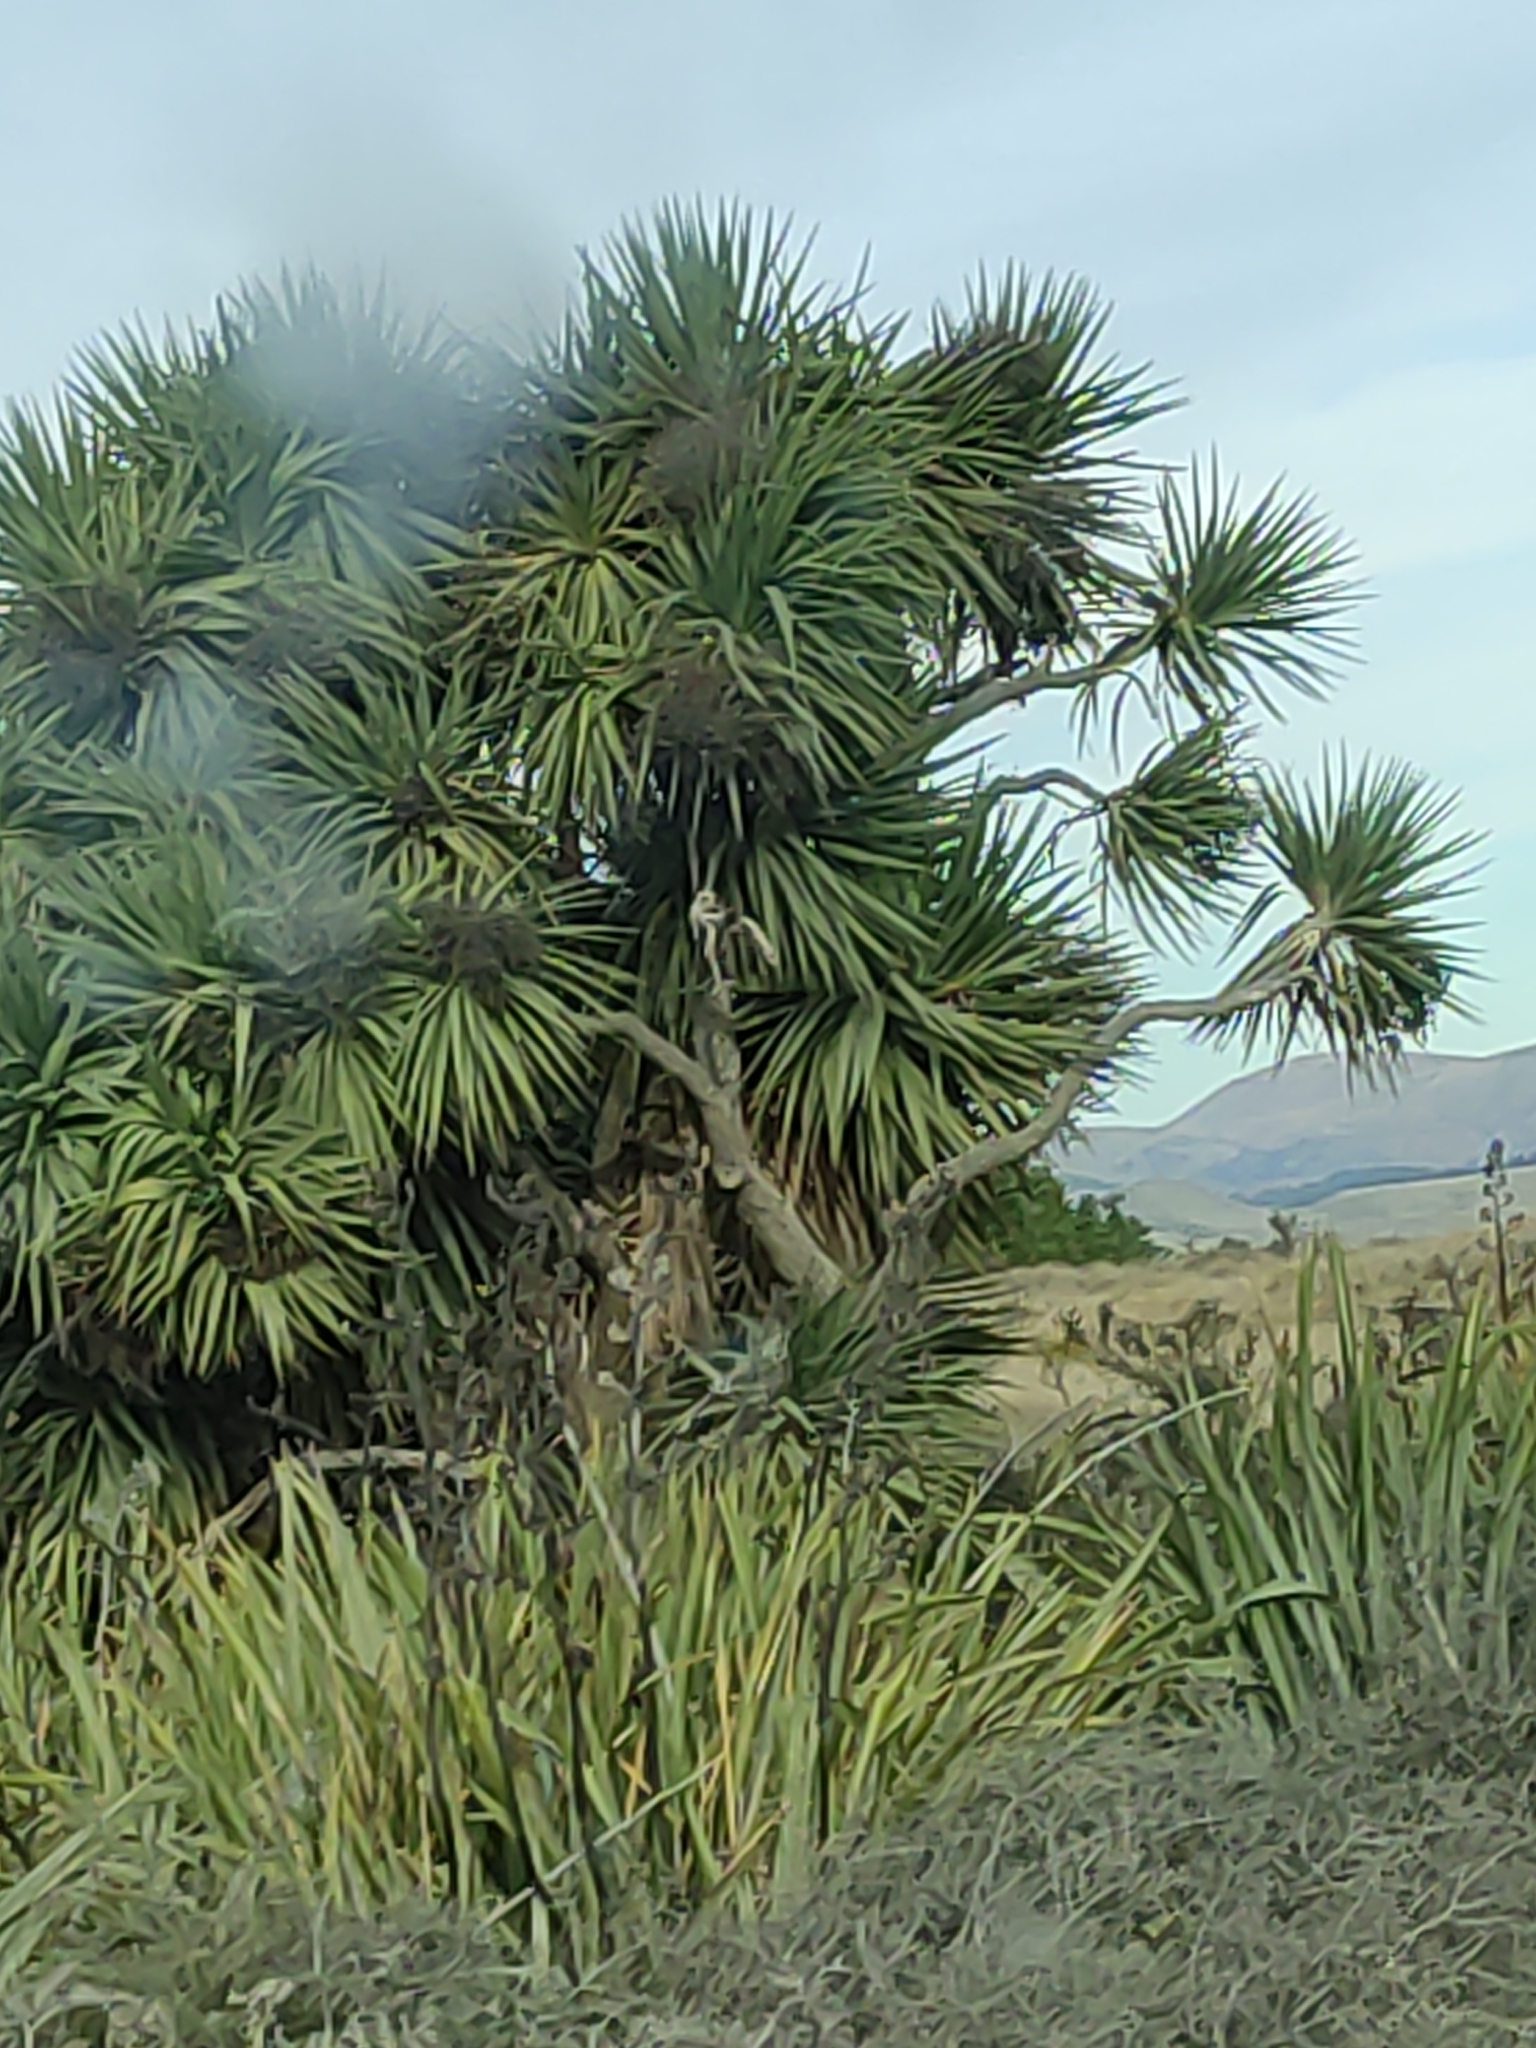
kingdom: Plantae
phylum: Tracheophyta
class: Liliopsida
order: Asparagales
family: Asparagaceae
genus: Cordyline
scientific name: Cordyline australis
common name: Cabbage-palm
